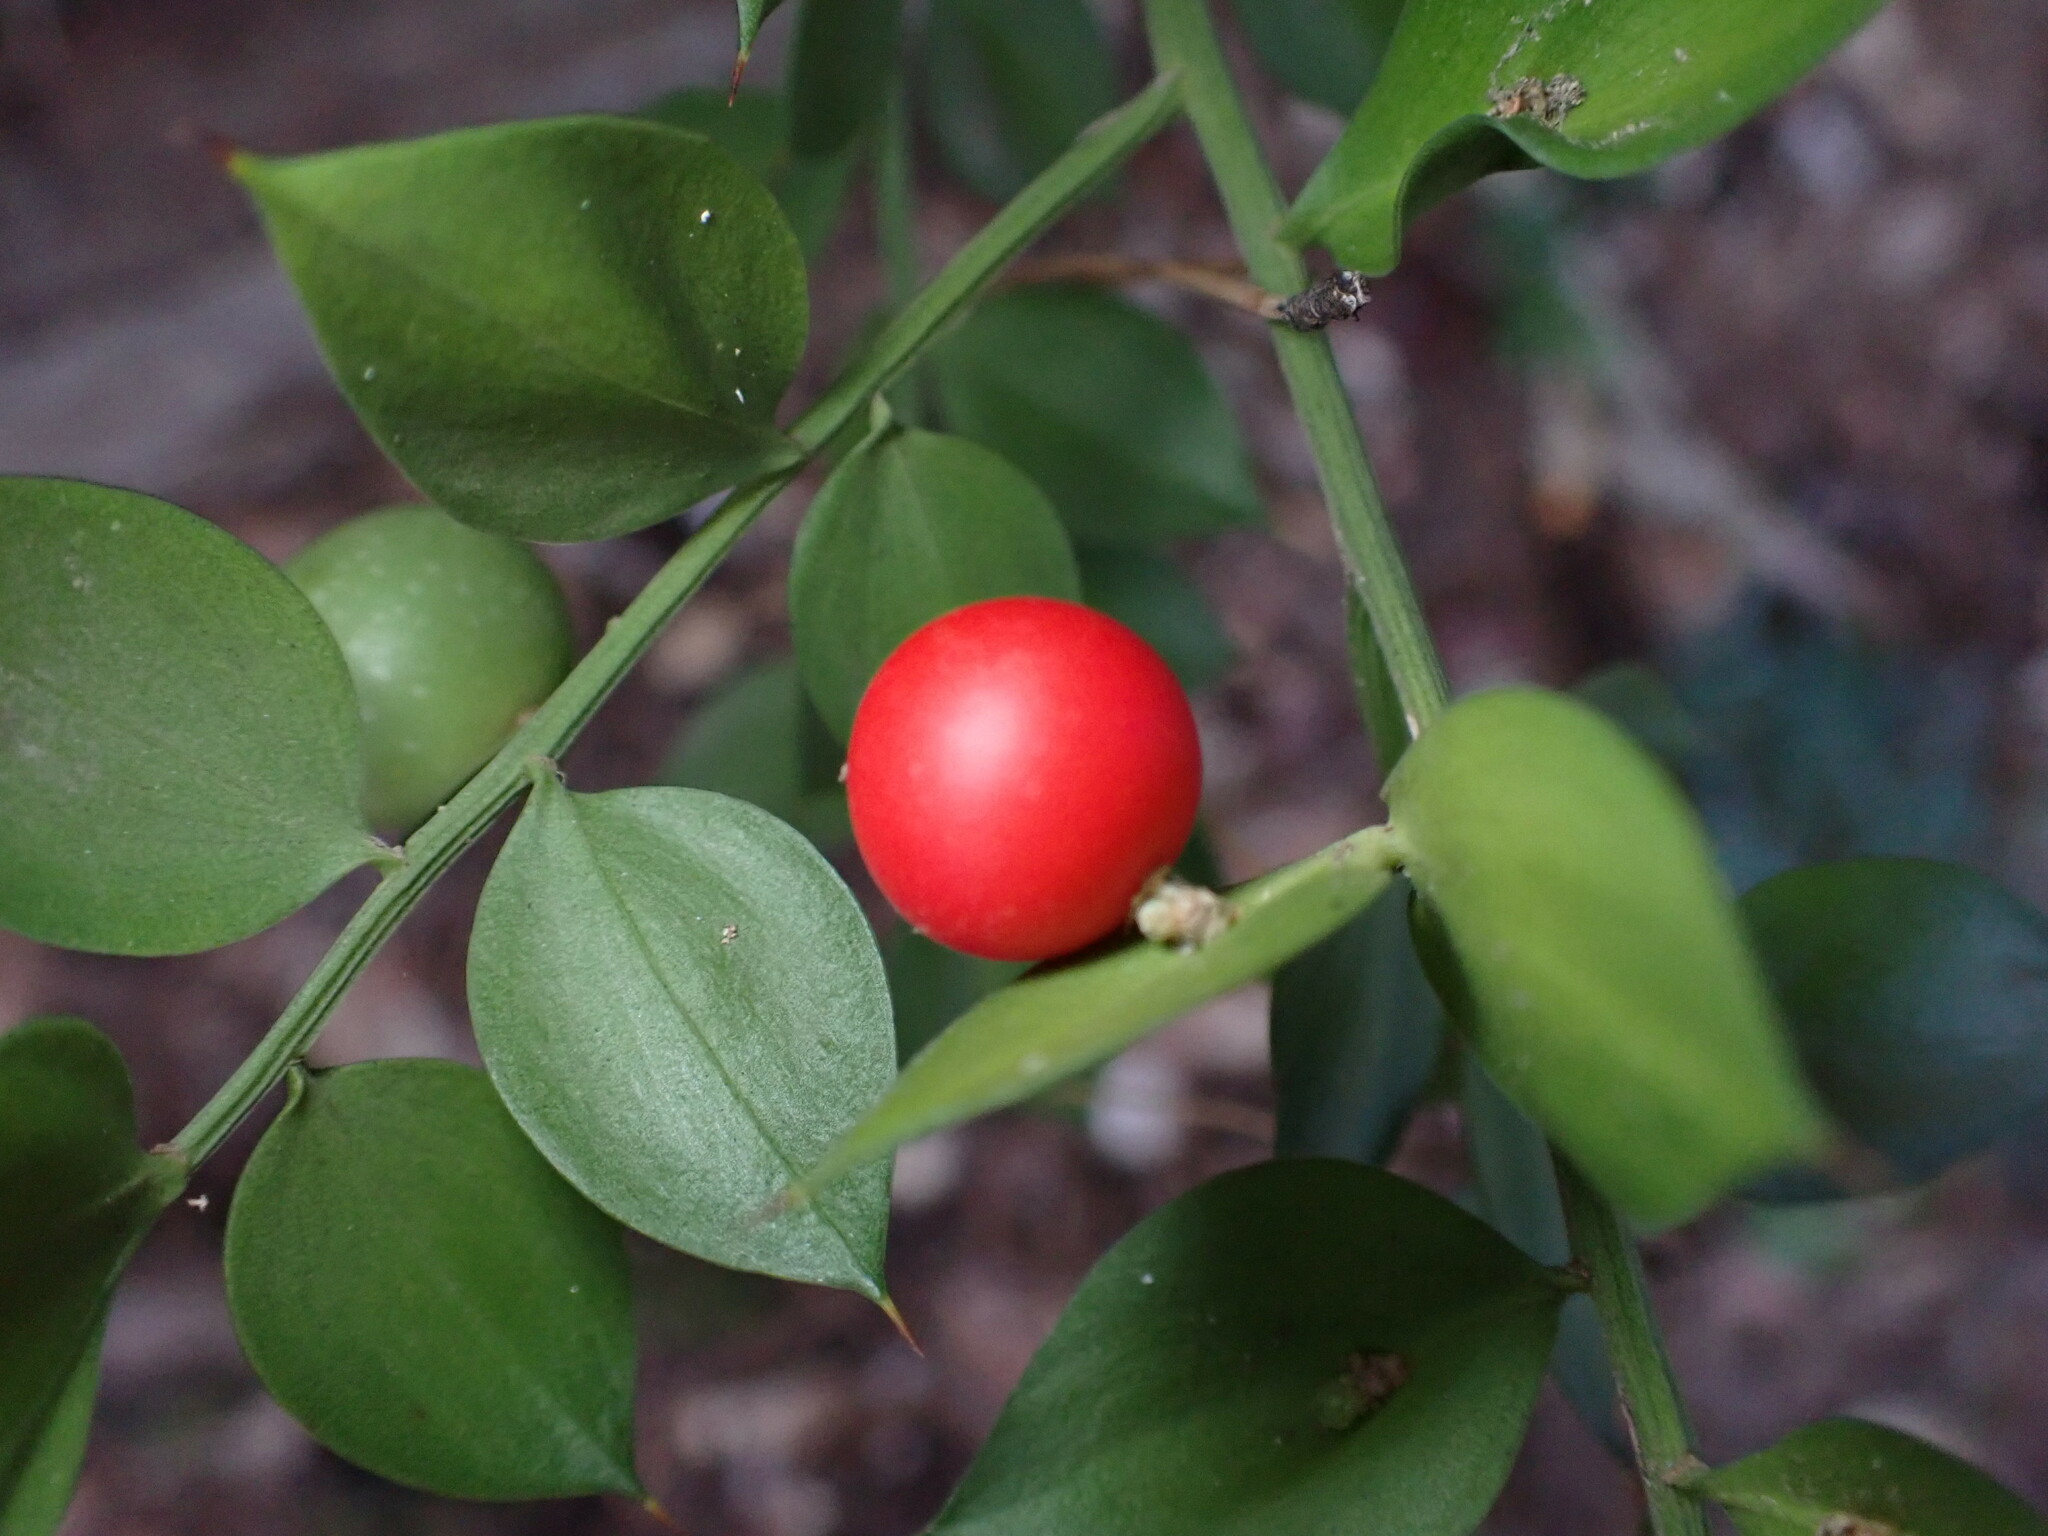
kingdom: Plantae
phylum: Tracheophyta
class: Liliopsida
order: Asparagales
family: Asparagaceae
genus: Ruscus
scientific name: Ruscus aculeatus
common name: Butcher's-broom
